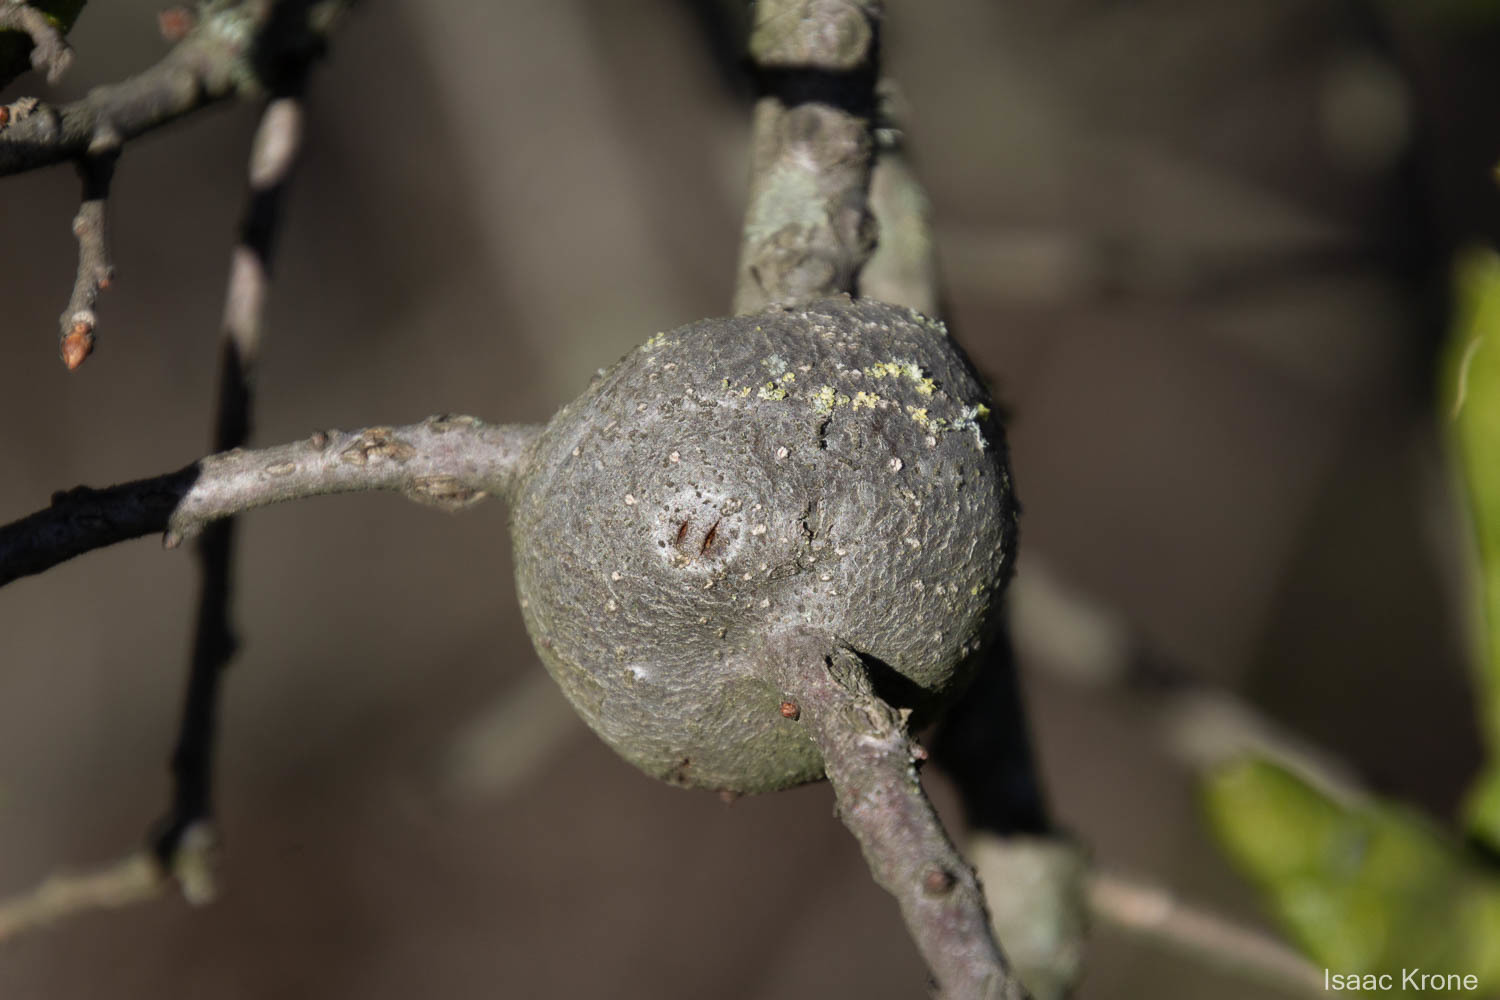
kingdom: Animalia
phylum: Arthropoda
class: Insecta
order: Hymenoptera
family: Cynipidae
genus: Callirhytis
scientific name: Callirhytis
